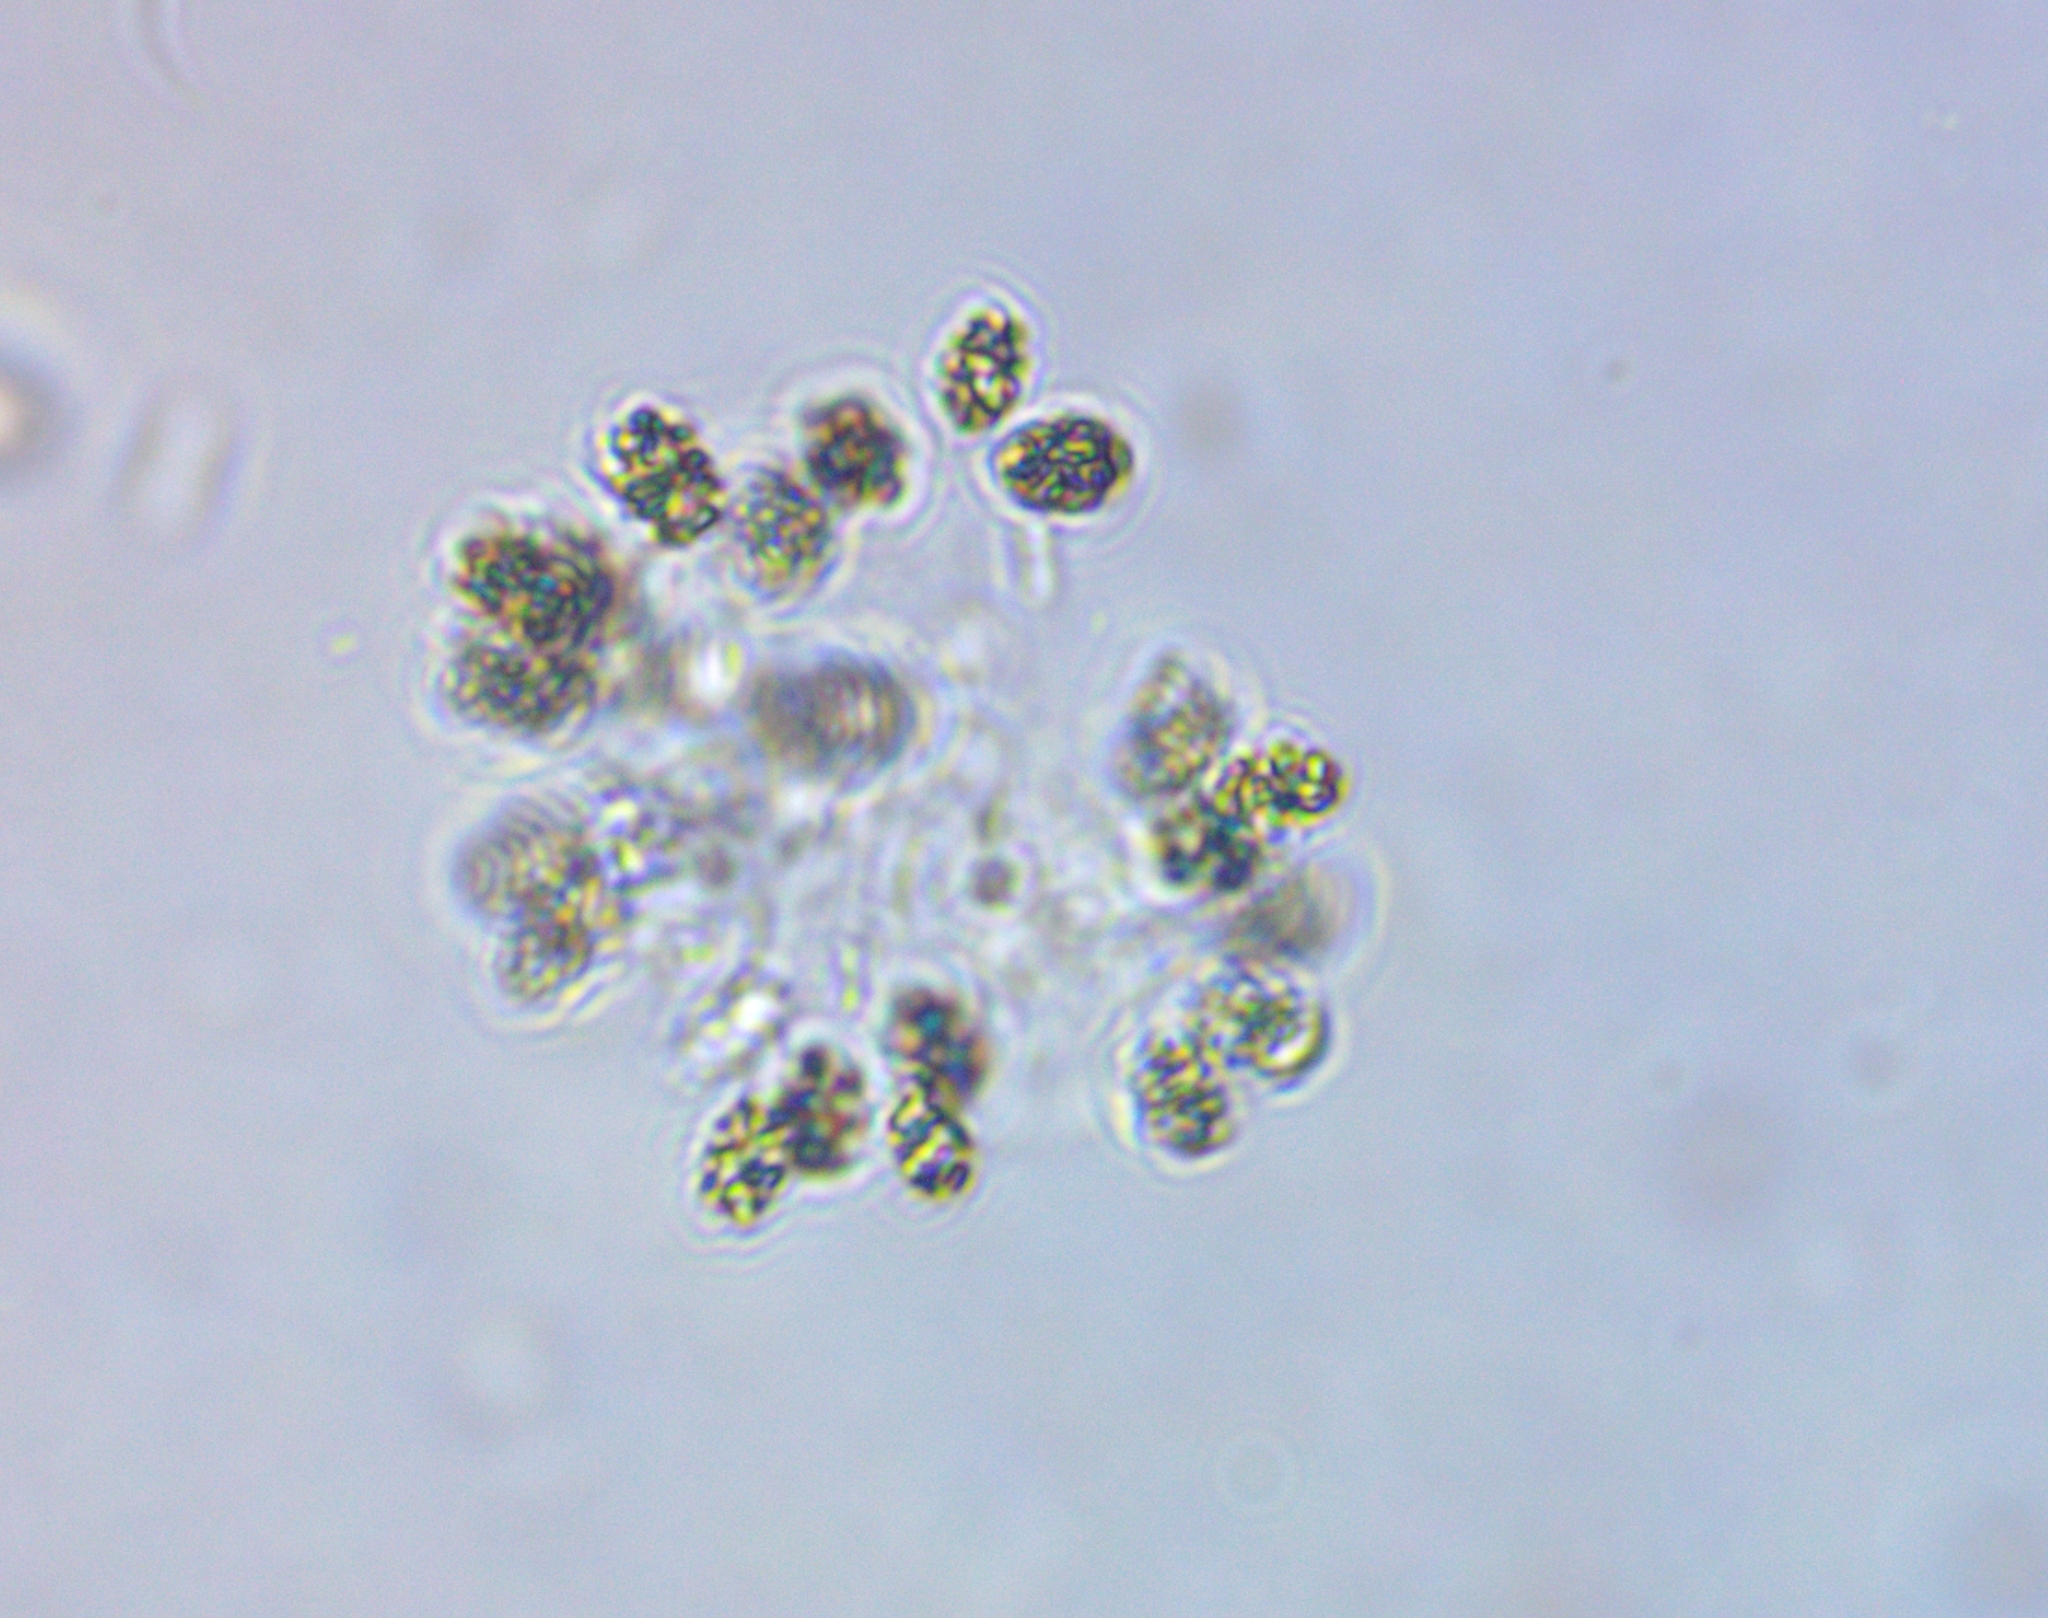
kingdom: Bacteria
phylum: Cyanobacteria
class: Cyanobacteriia
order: Synechococcales
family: Coelosphaeriaceae
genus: Woronichinia
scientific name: Woronichinia naegeliana
